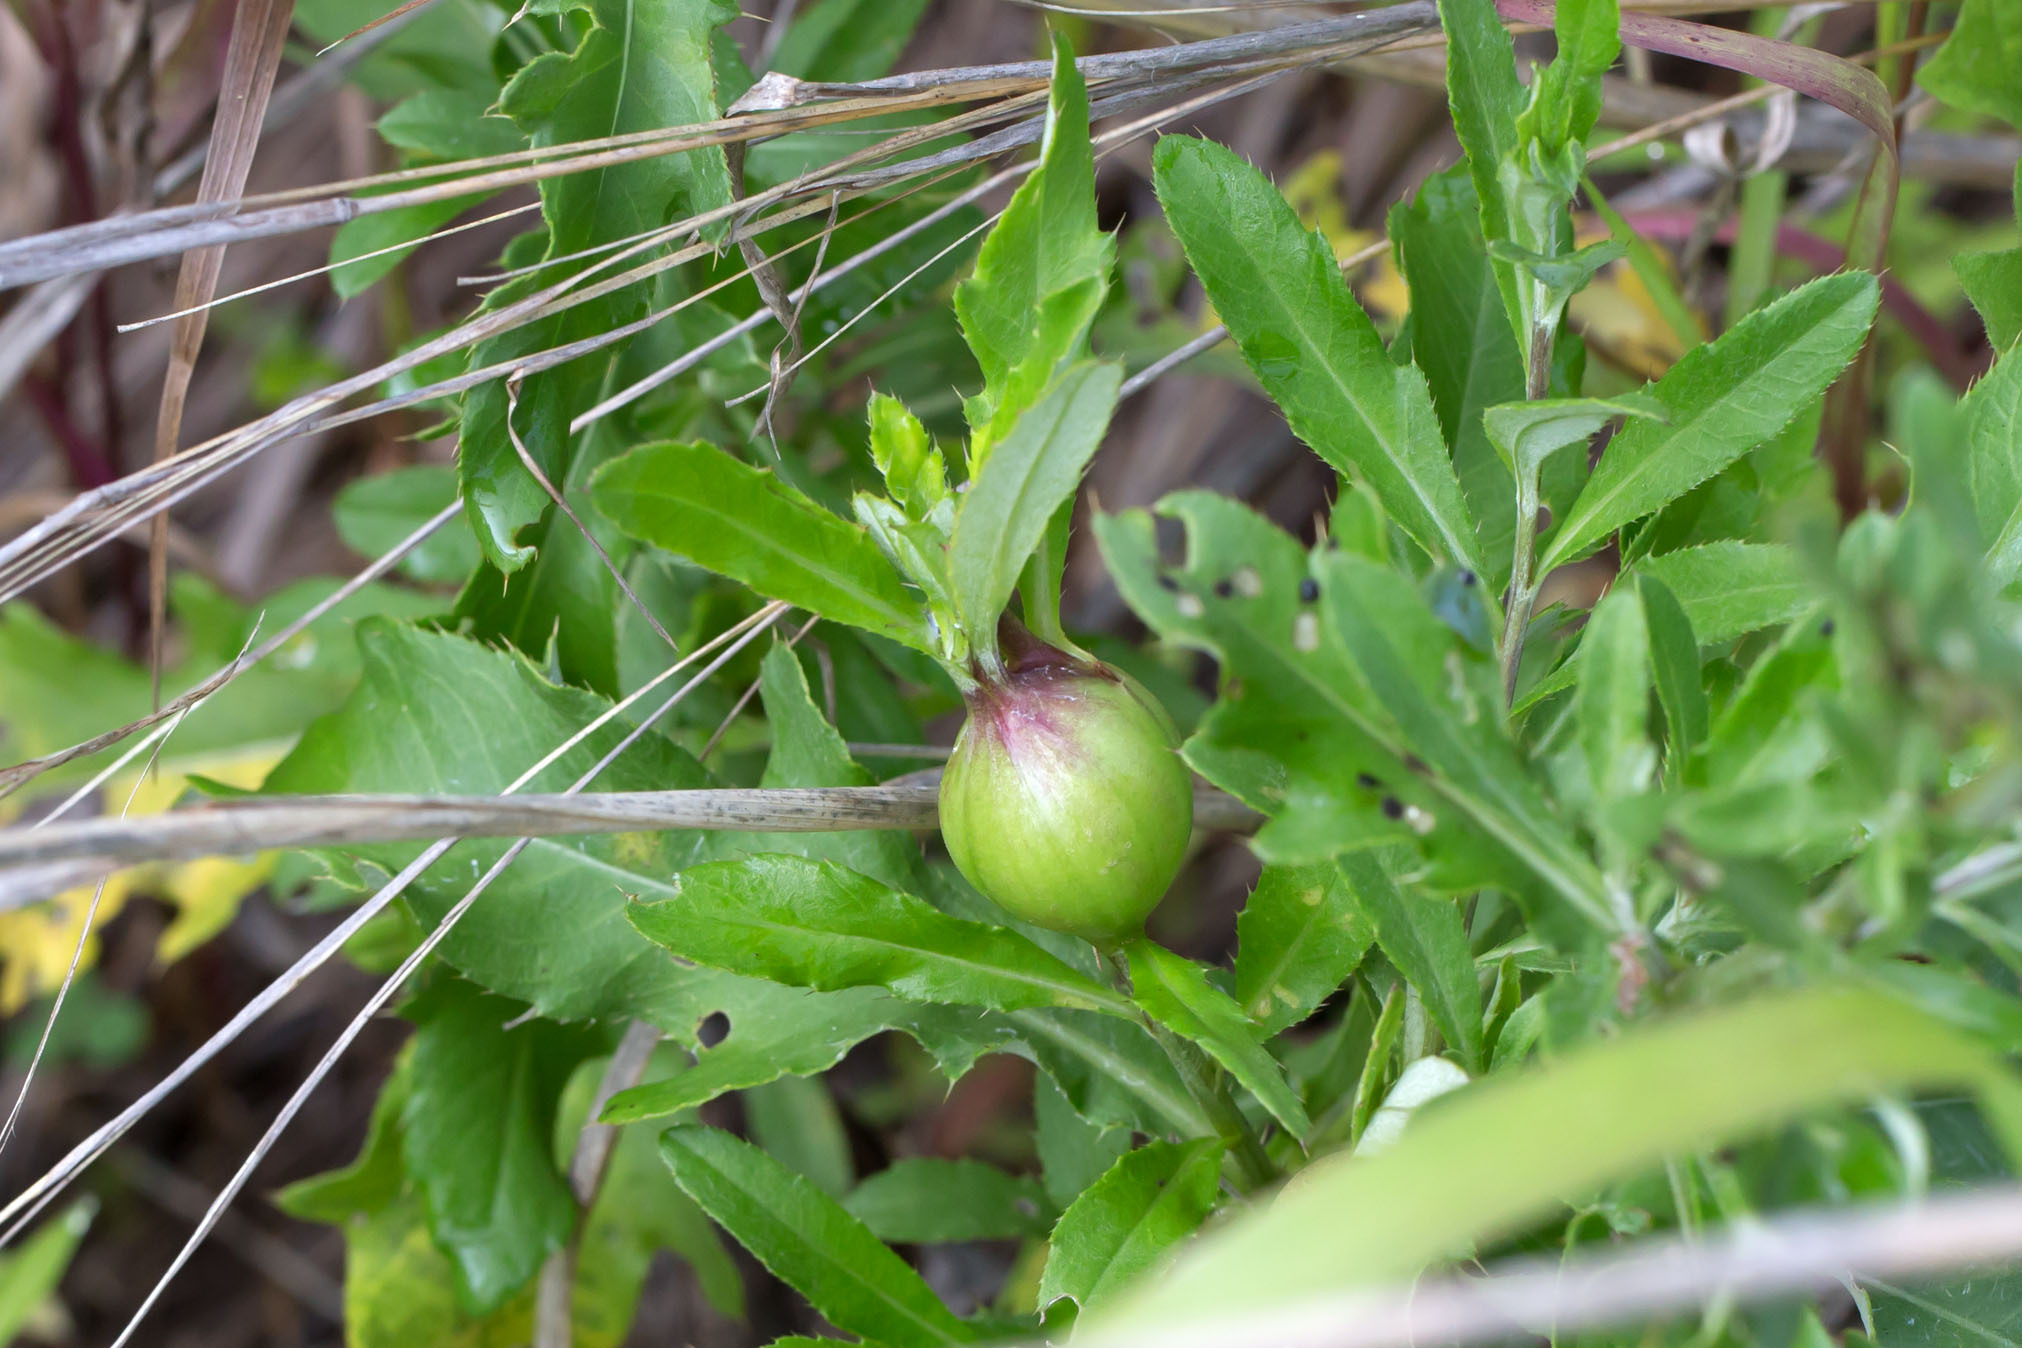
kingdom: Animalia
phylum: Arthropoda
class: Insecta
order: Diptera
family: Tephritidae
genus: Urophora
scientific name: Urophora cardui
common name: Fruit fly
